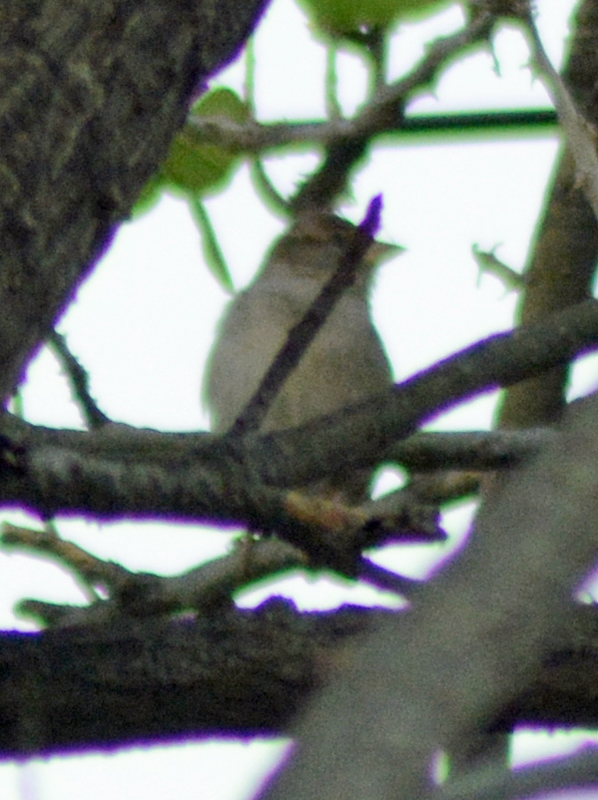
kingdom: Animalia
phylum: Chordata
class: Aves
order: Passeriformes
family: Passeridae
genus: Passer
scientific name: Passer domesticus
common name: House sparrow
